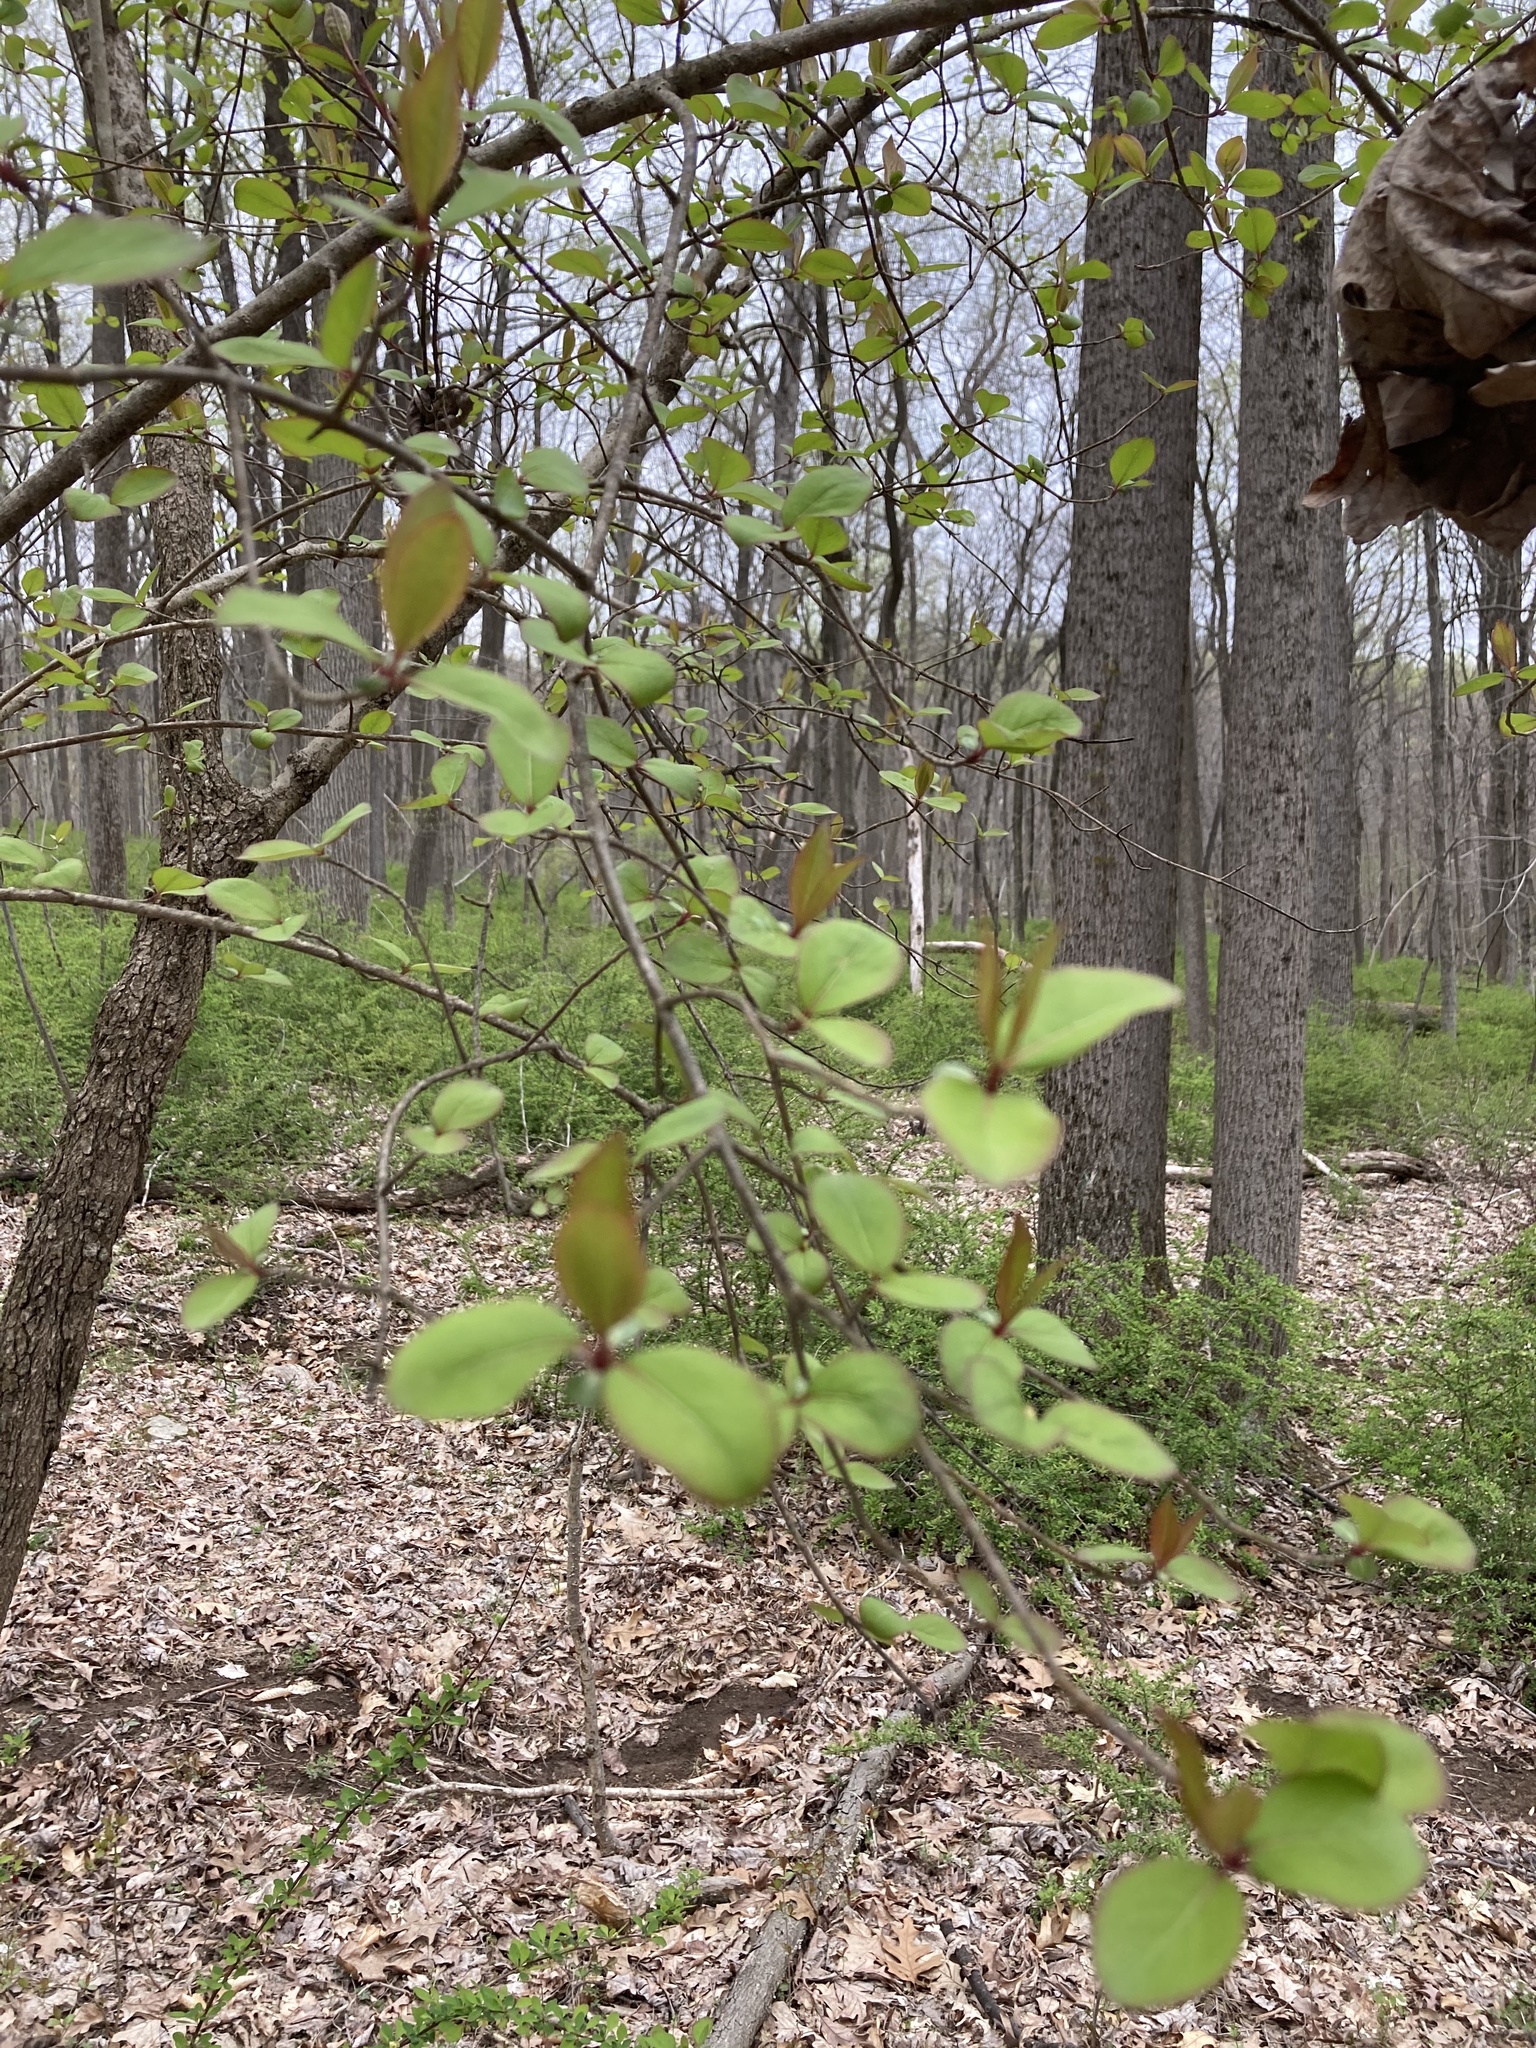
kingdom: Plantae
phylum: Tracheophyta
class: Magnoliopsida
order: Dipsacales
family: Viburnaceae
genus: Viburnum
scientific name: Viburnum prunifolium
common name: Black haw
